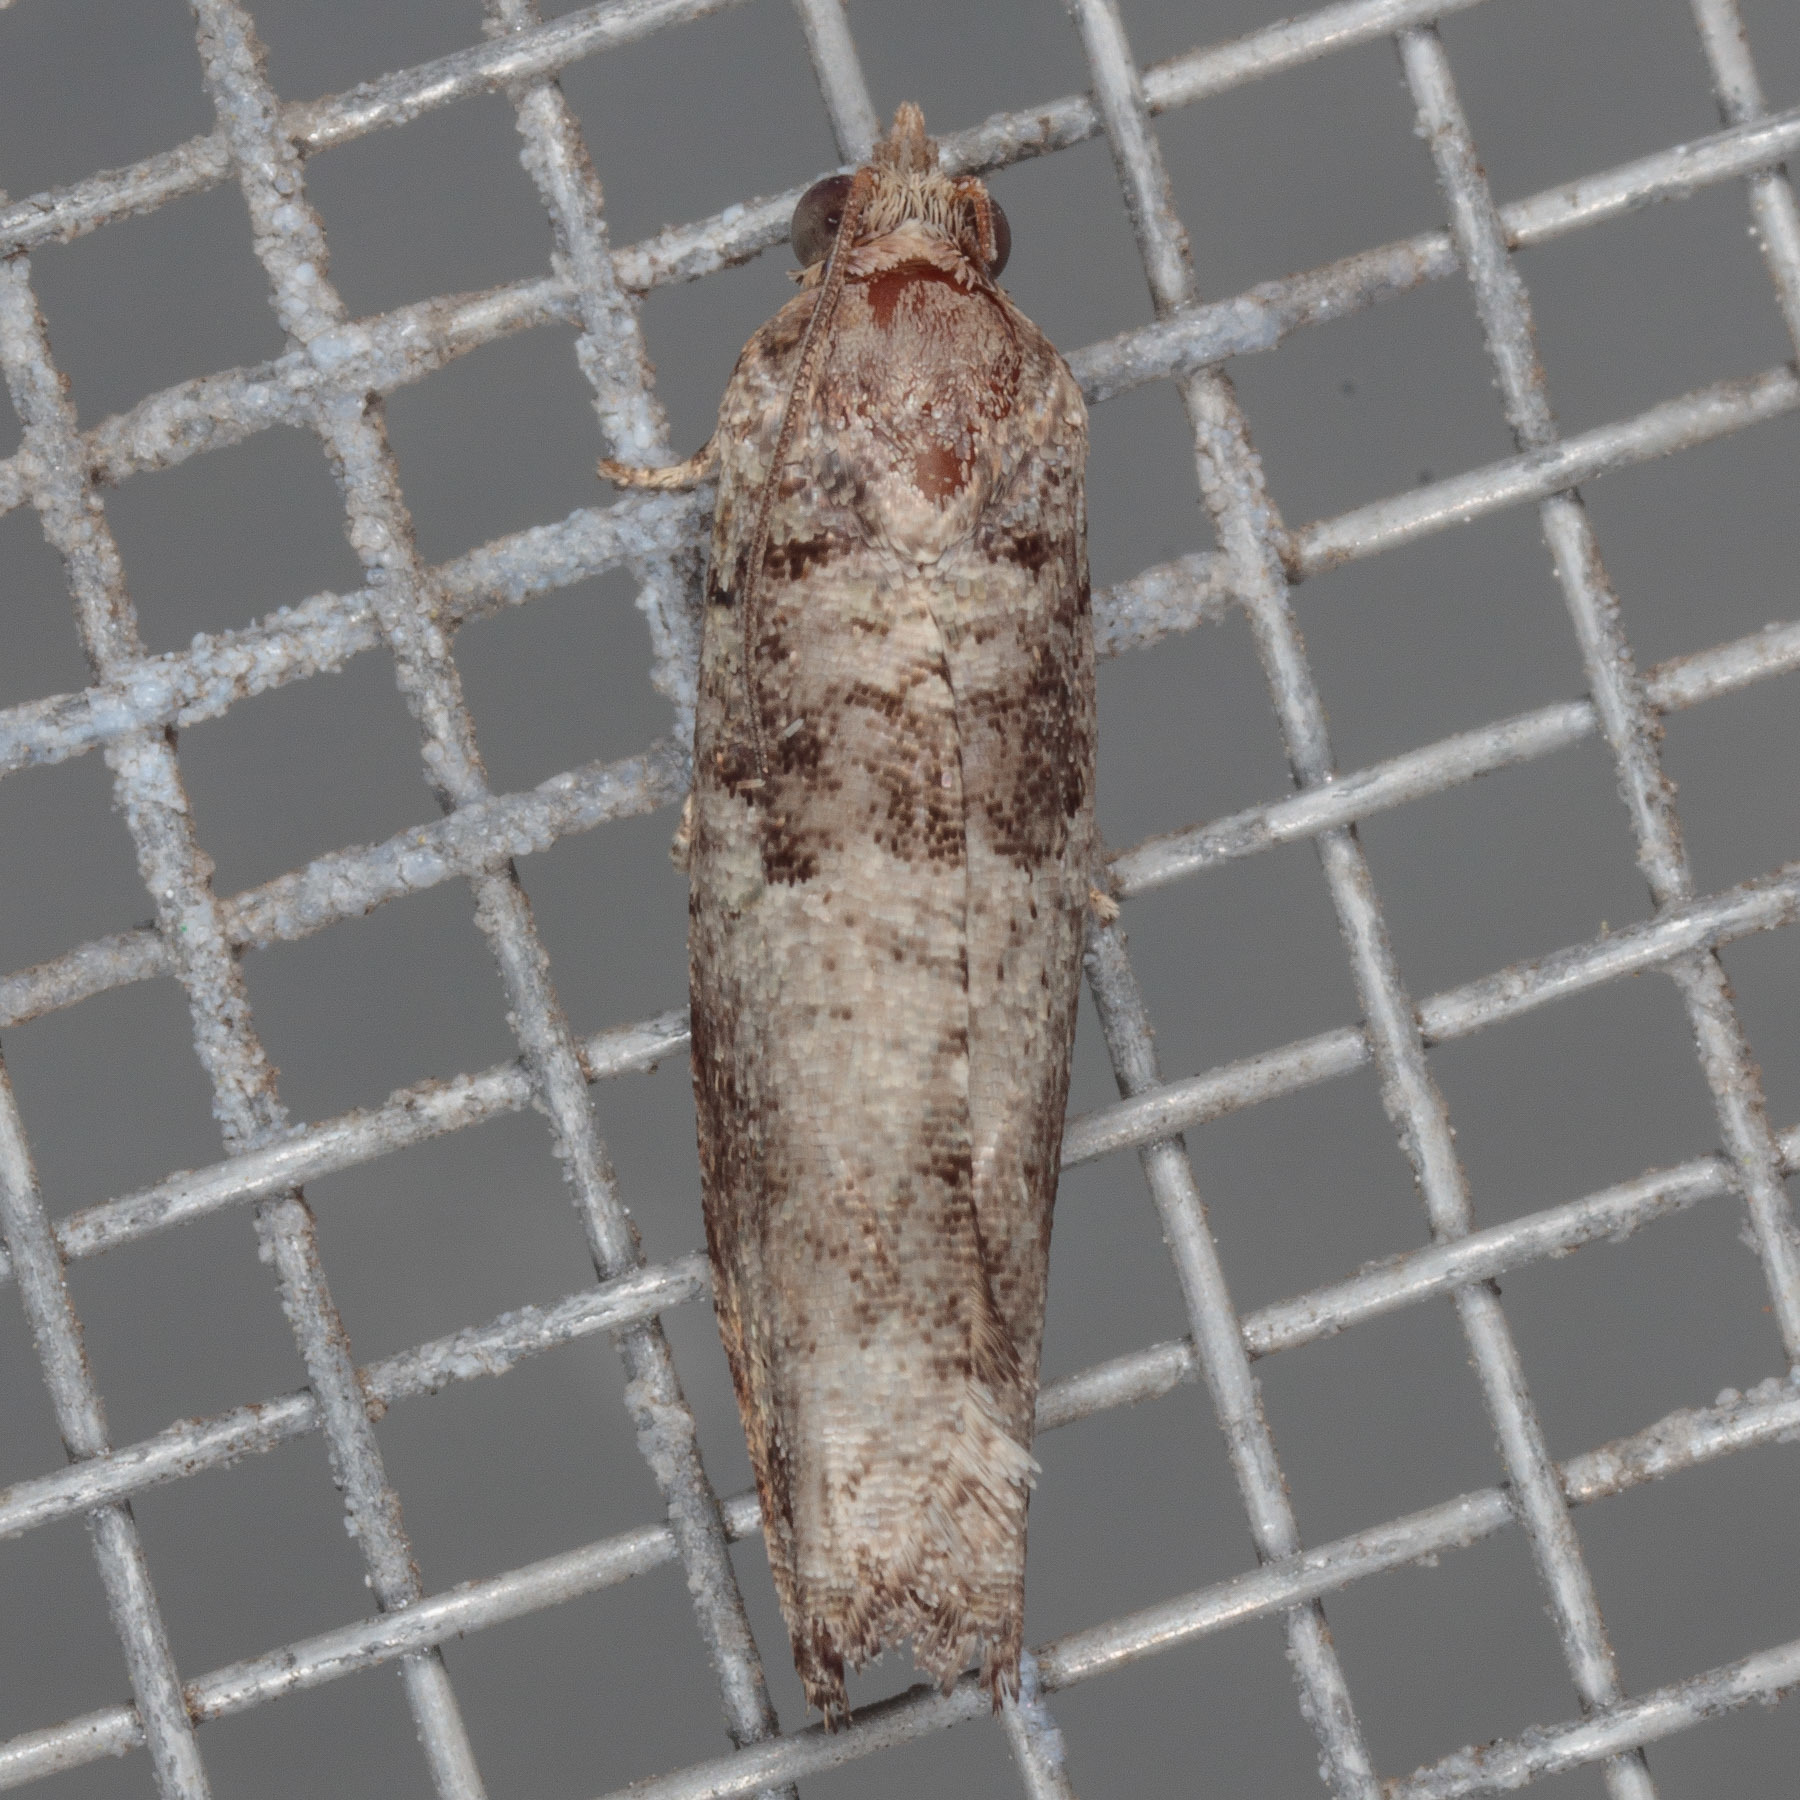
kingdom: Animalia
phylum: Arthropoda
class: Insecta
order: Lepidoptera
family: Tortricidae
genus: Pseudexentera
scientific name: Pseudexentera knudsoni
